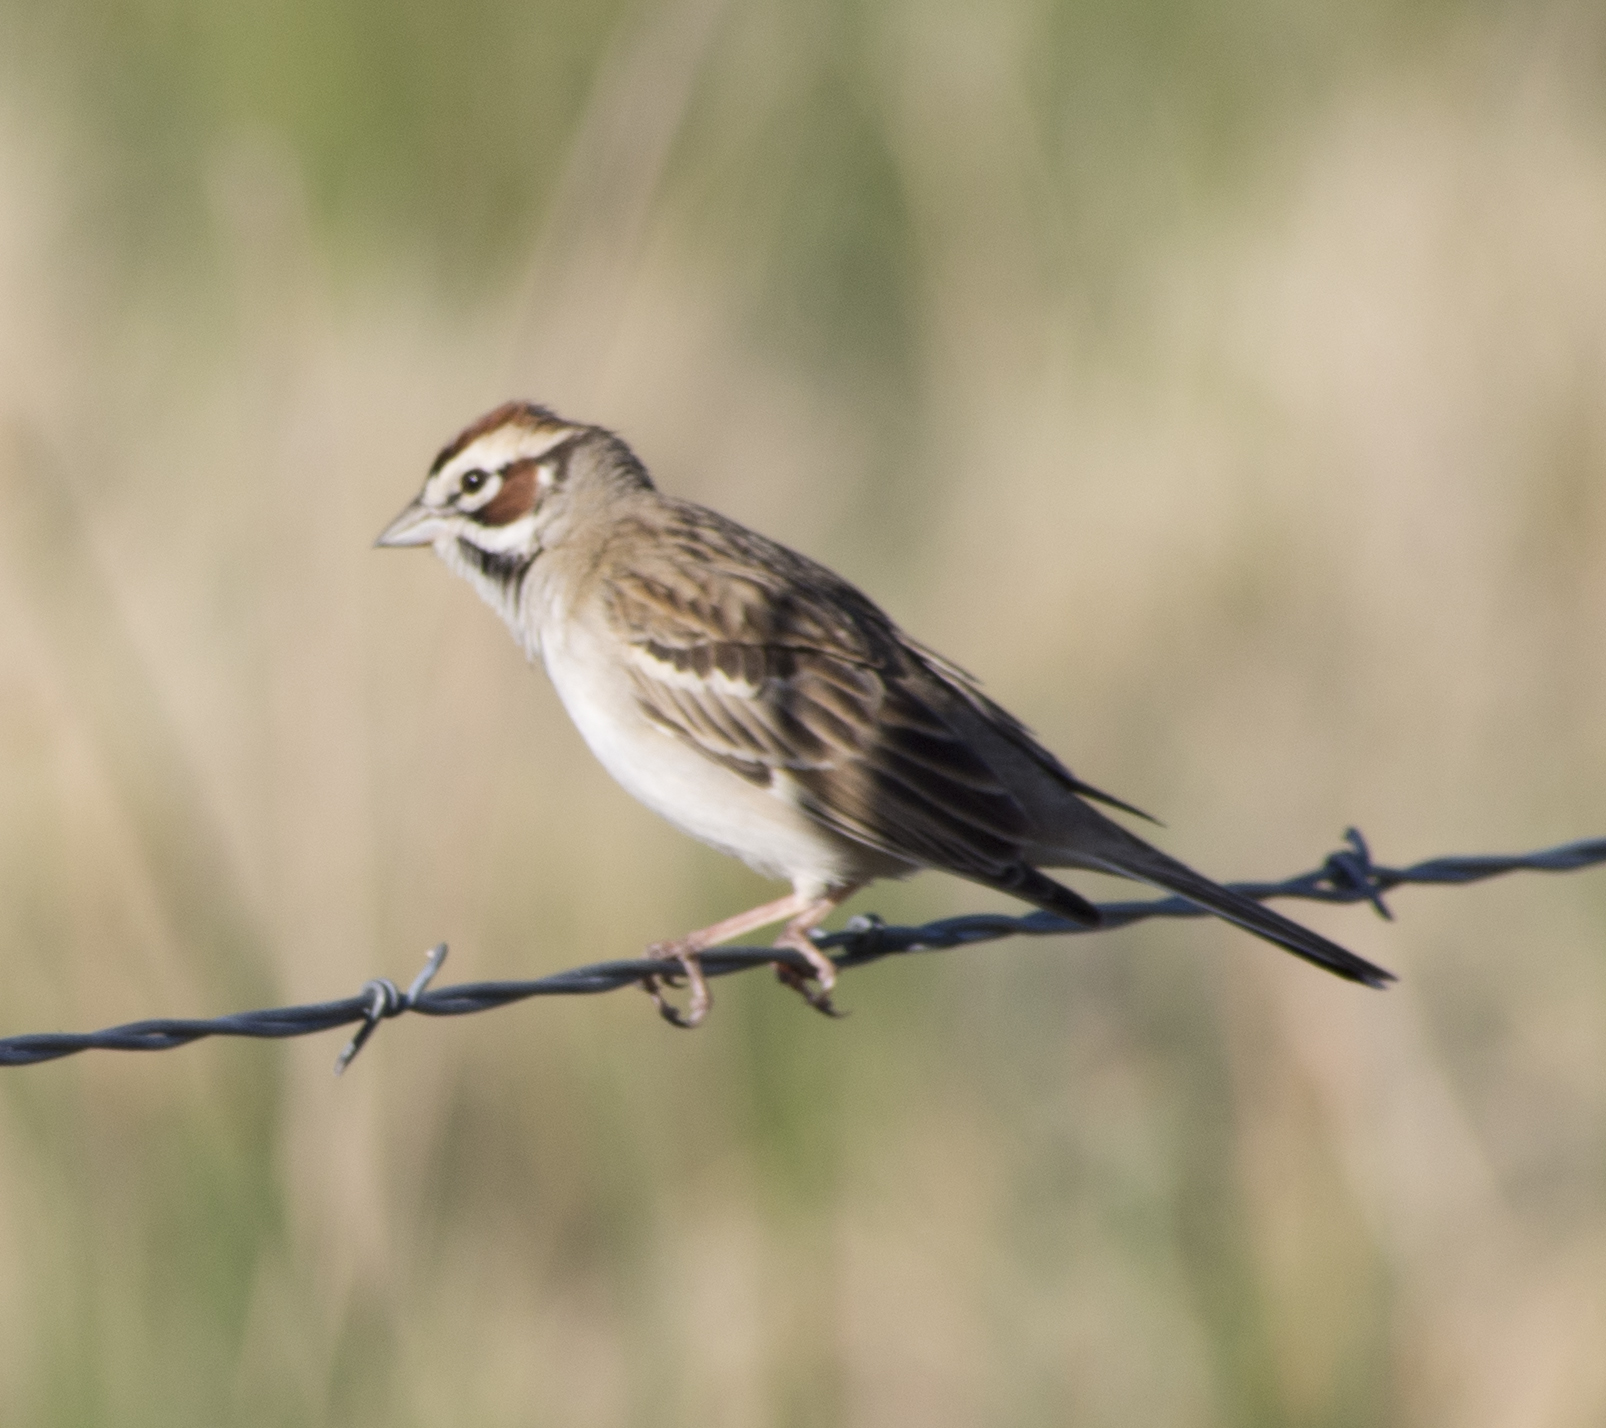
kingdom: Animalia
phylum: Chordata
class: Aves
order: Passeriformes
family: Passerellidae
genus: Chondestes
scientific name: Chondestes grammacus
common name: Lark sparrow
